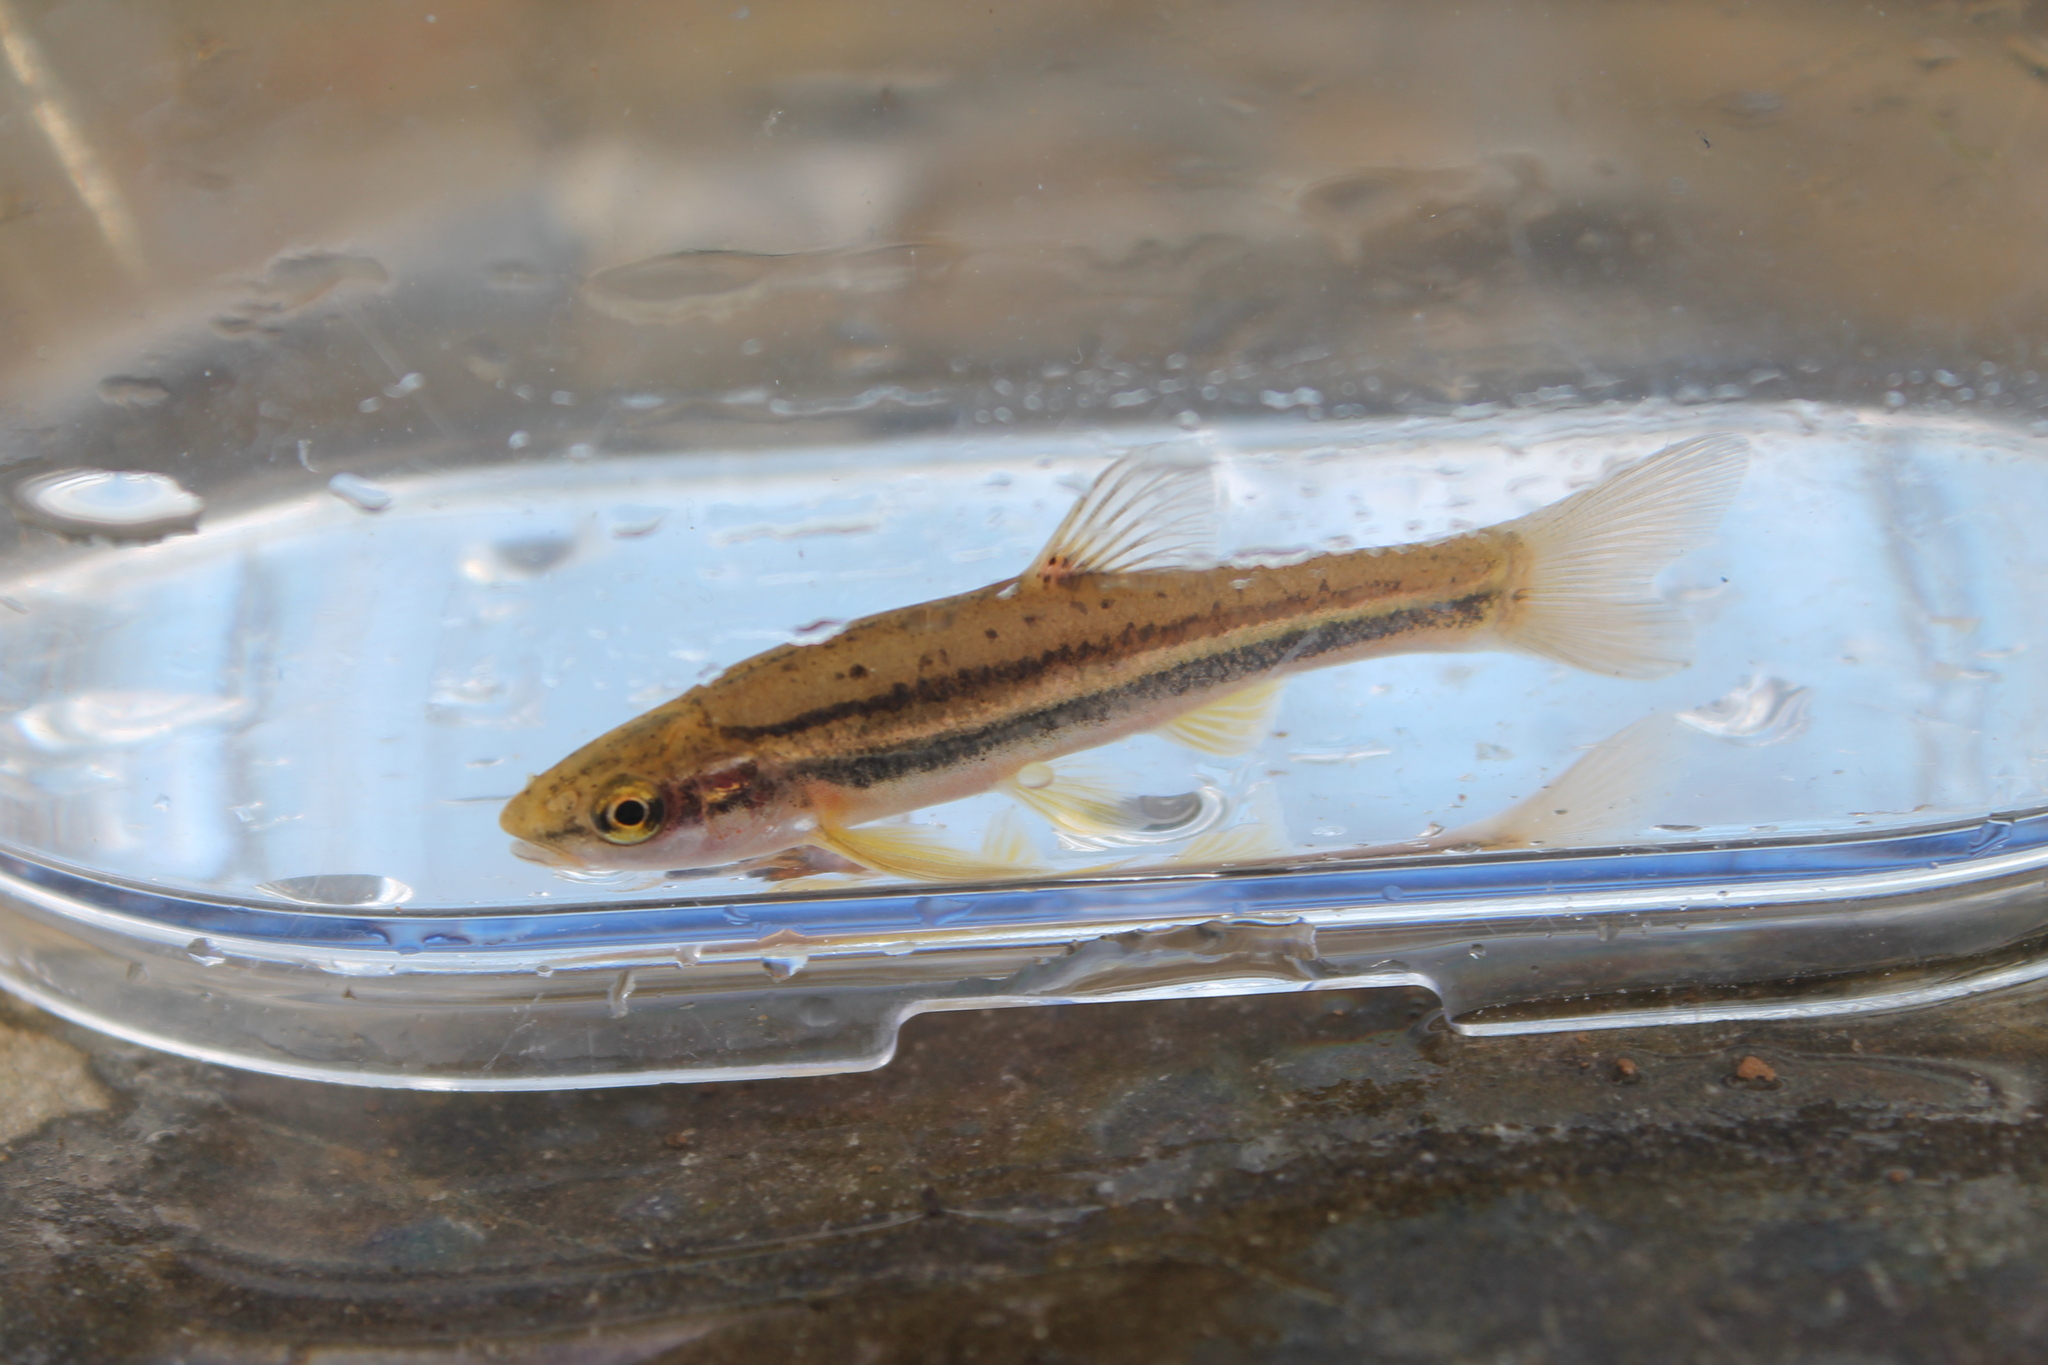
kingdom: Animalia
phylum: Chordata
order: Cypriniformes
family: Cyprinidae
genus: Chrosomus
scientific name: Chrosomus erythrogaster
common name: Southern redbelly dace
